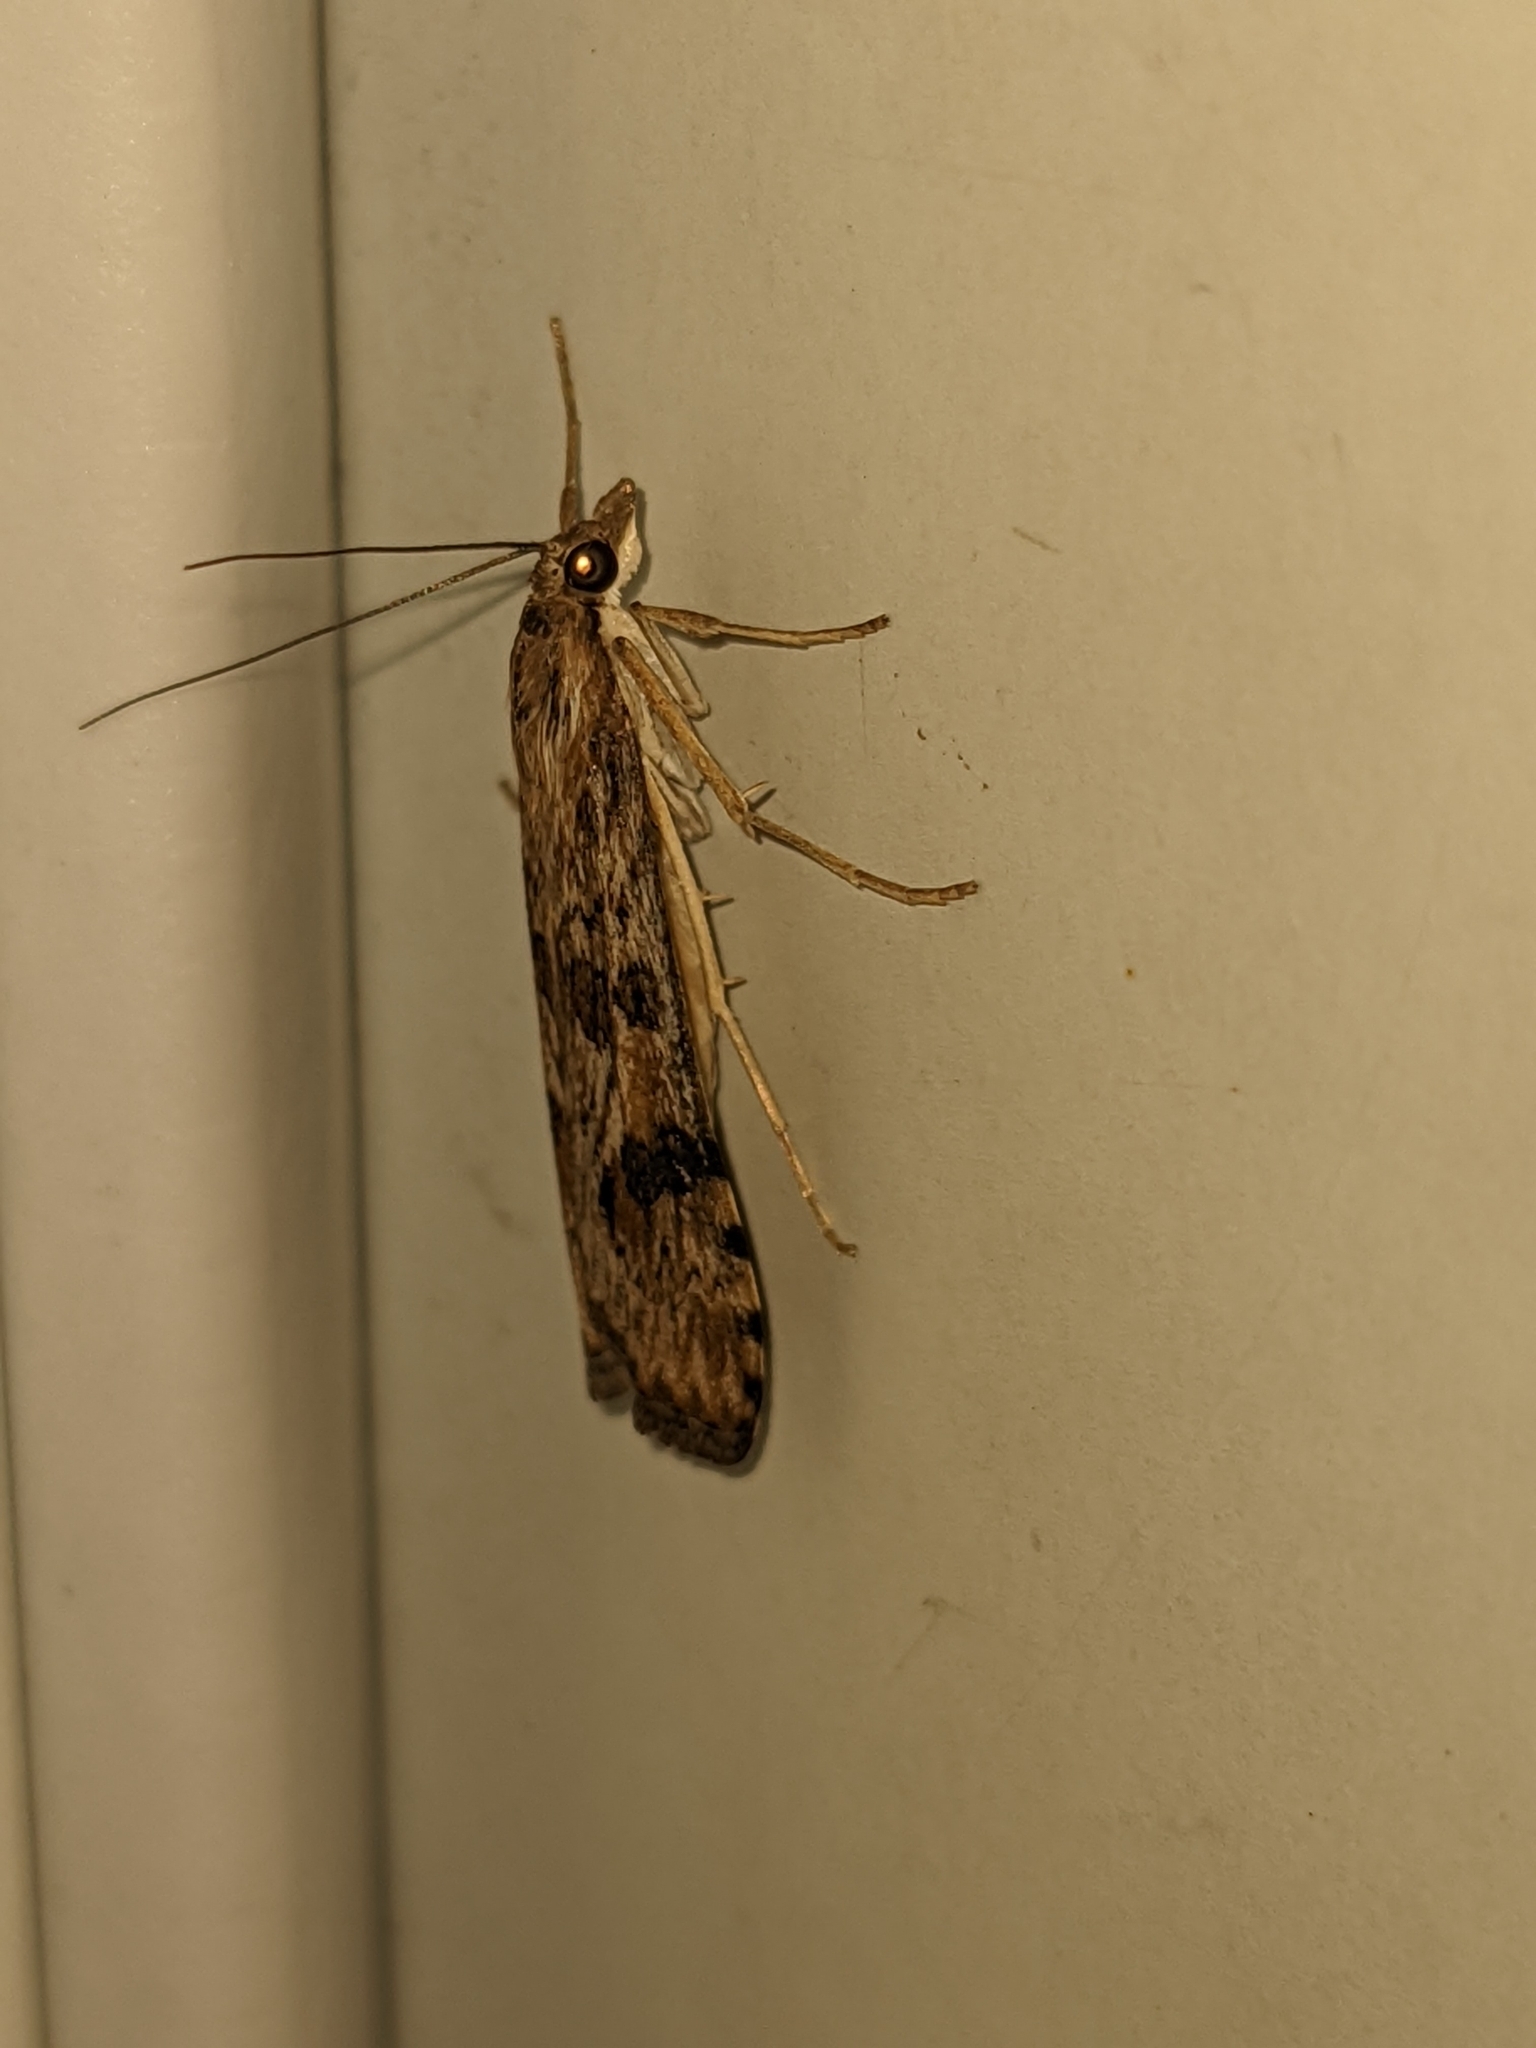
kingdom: Animalia
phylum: Arthropoda
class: Insecta
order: Lepidoptera
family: Crambidae
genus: Nomophila
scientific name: Nomophila nearctica
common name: American rush veneer
